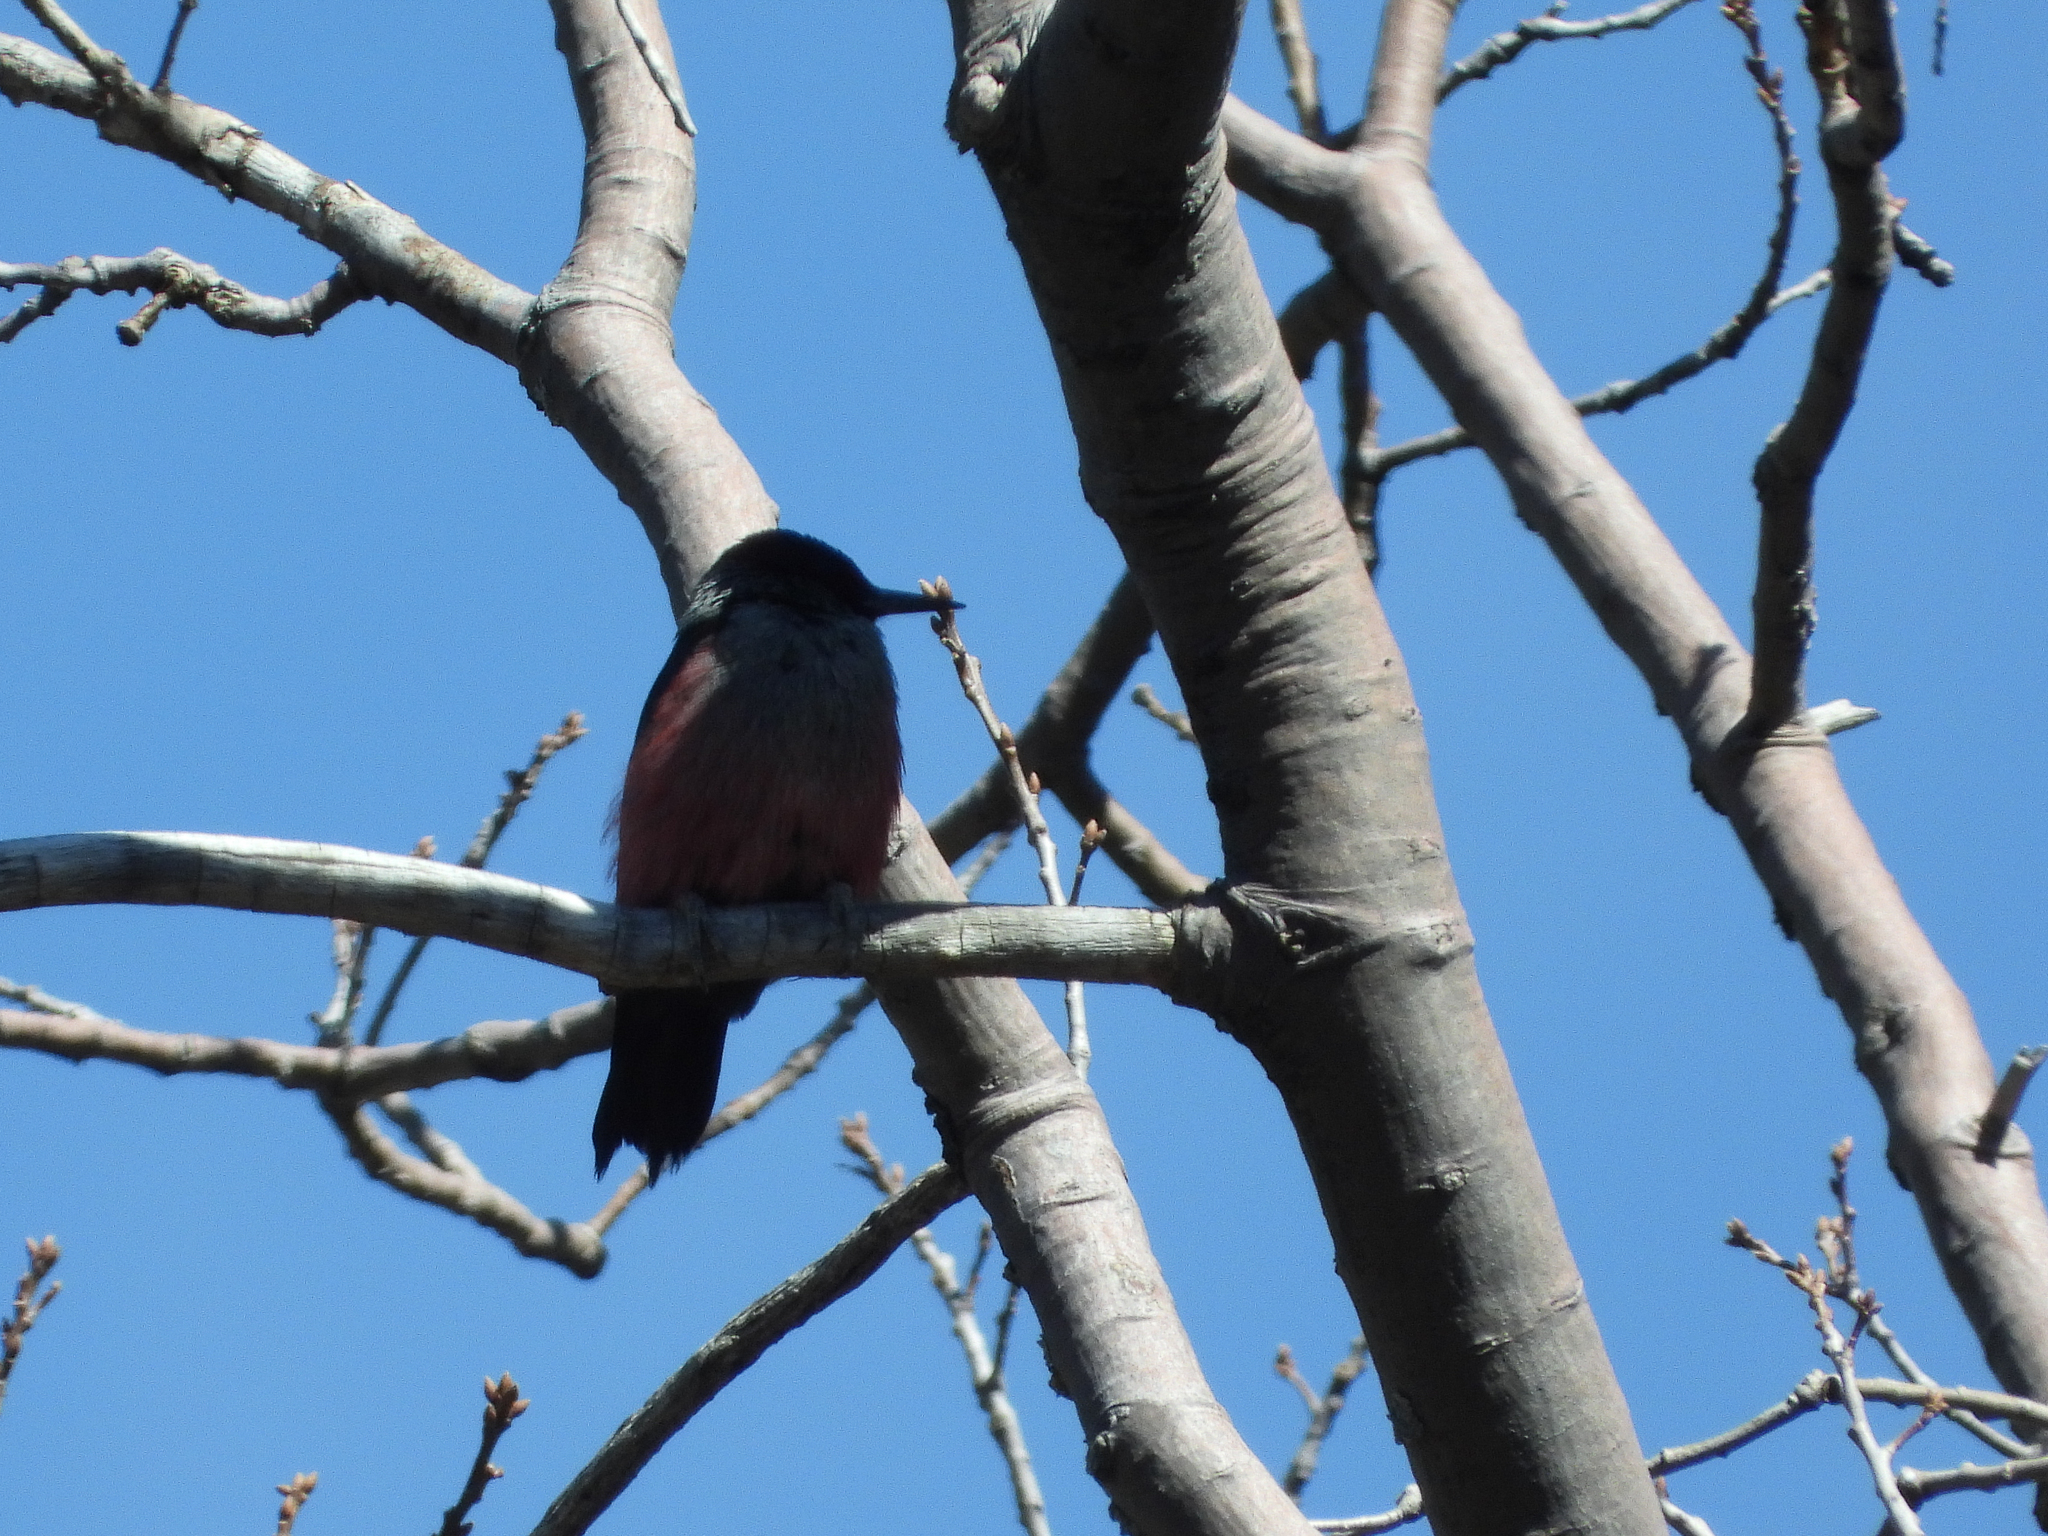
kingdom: Animalia
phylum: Chordata
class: Aves
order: Piciformes
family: Picidae
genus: Melanerpes
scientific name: Melanerpes lewis
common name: Lewis's woodpecker
